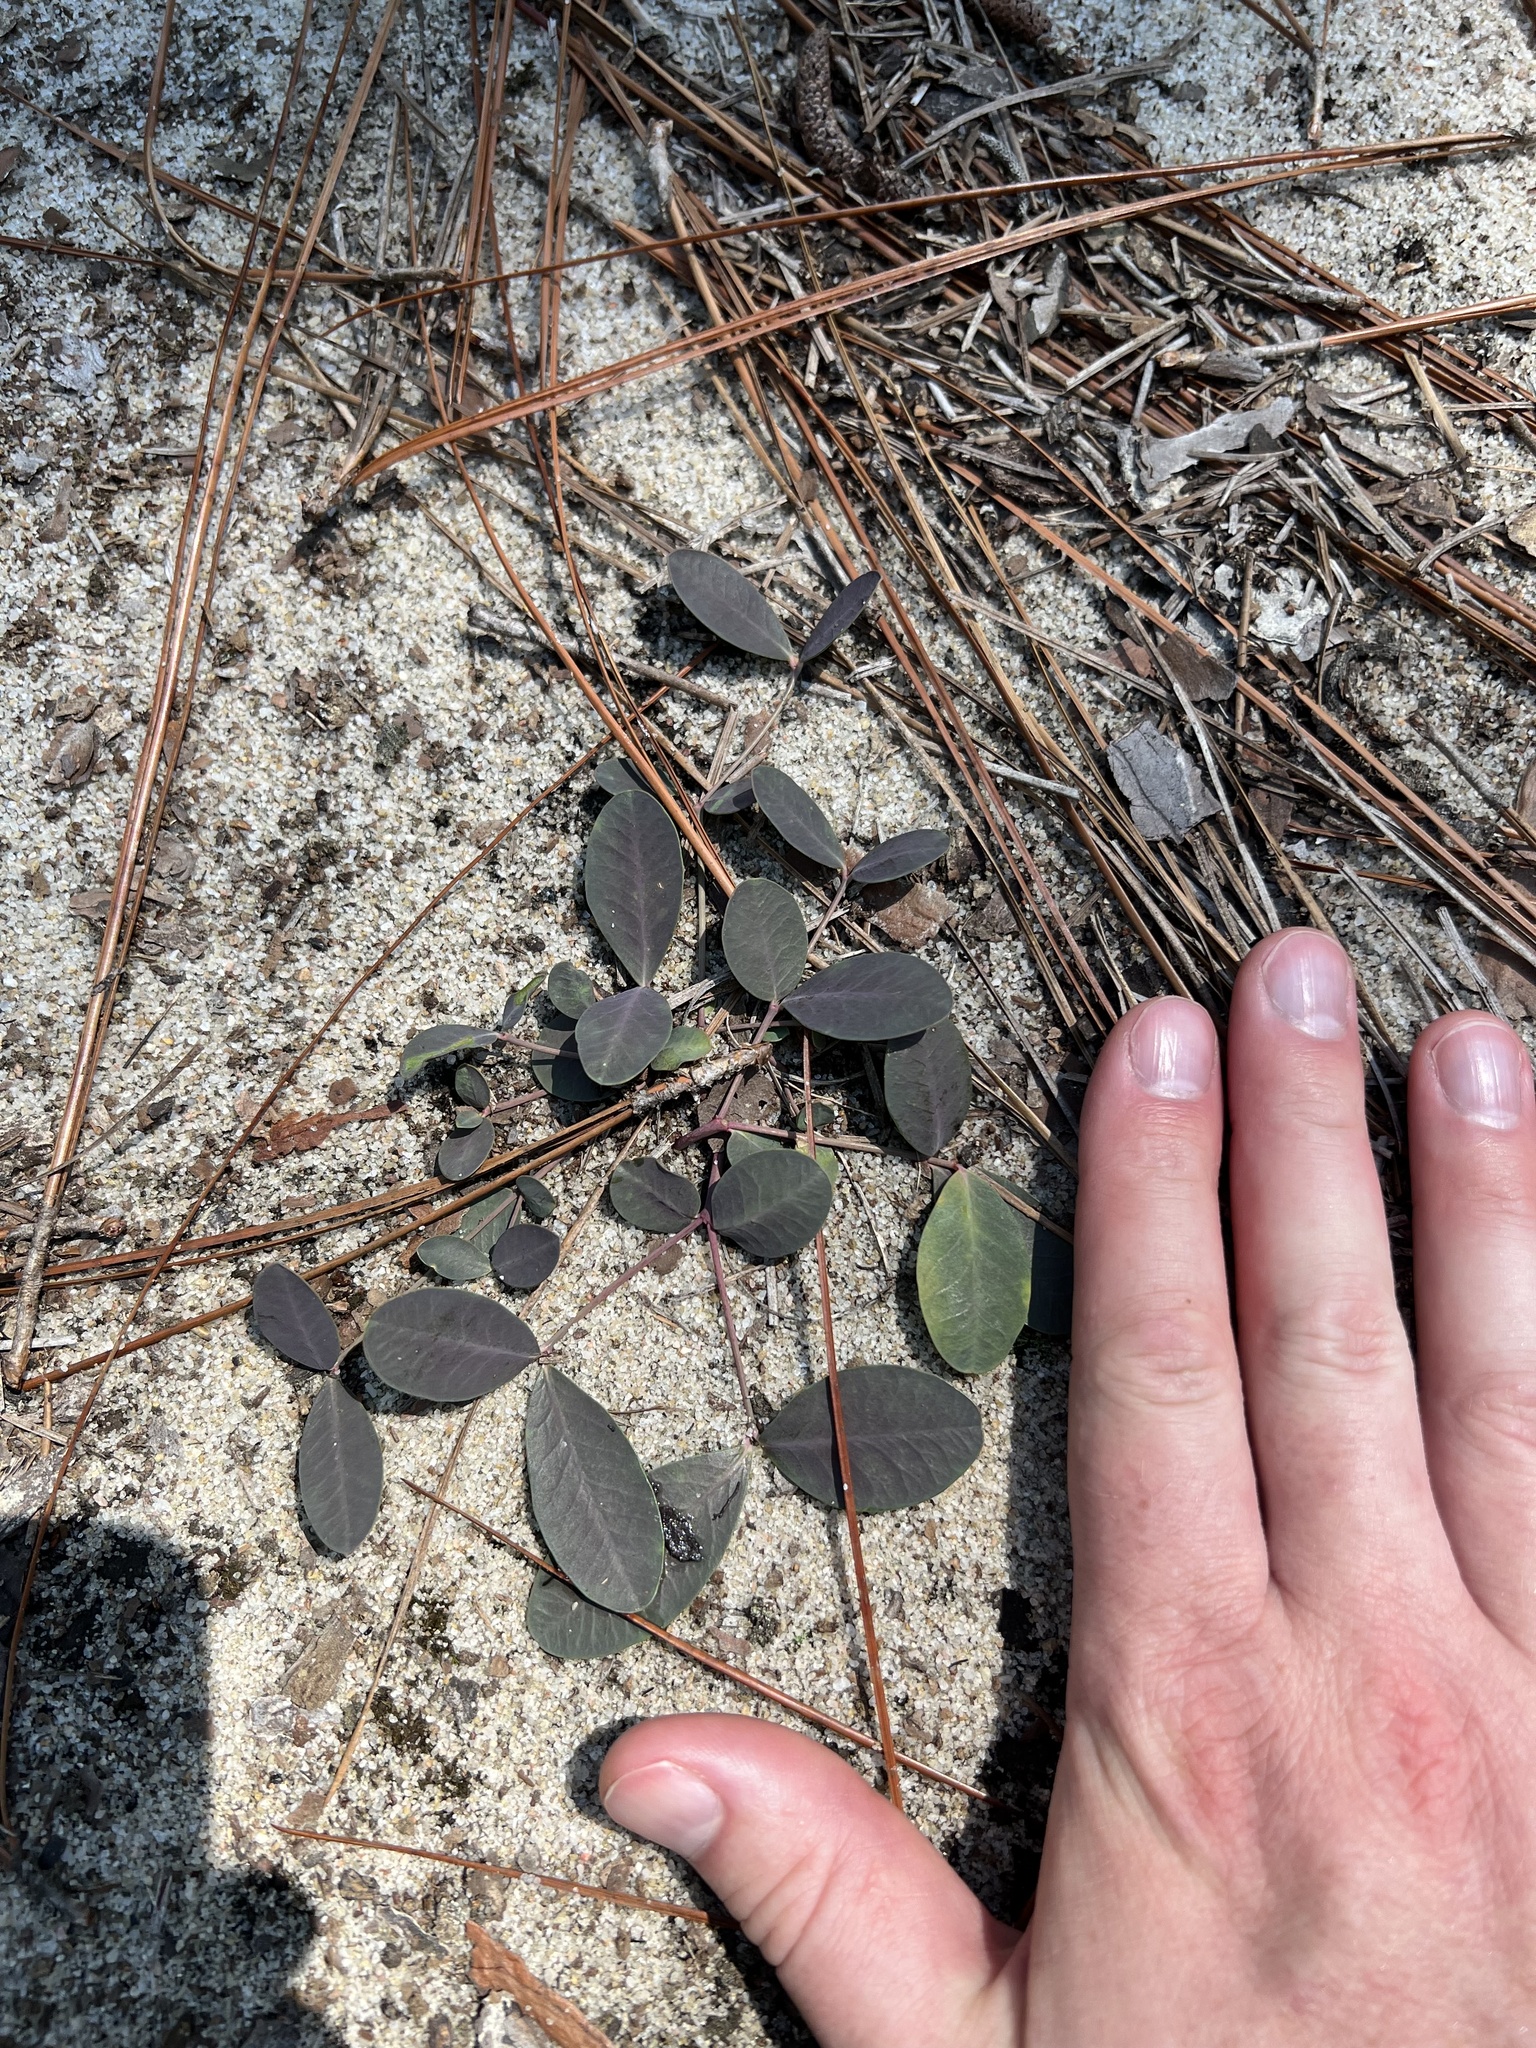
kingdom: Plantae
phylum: Tracheophyta
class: Magnoliopsida
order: Malpighiales
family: Euphorbiaceae
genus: Euphorbia
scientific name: Euphorbia ipecacuanhae
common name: Carolina ipecac
